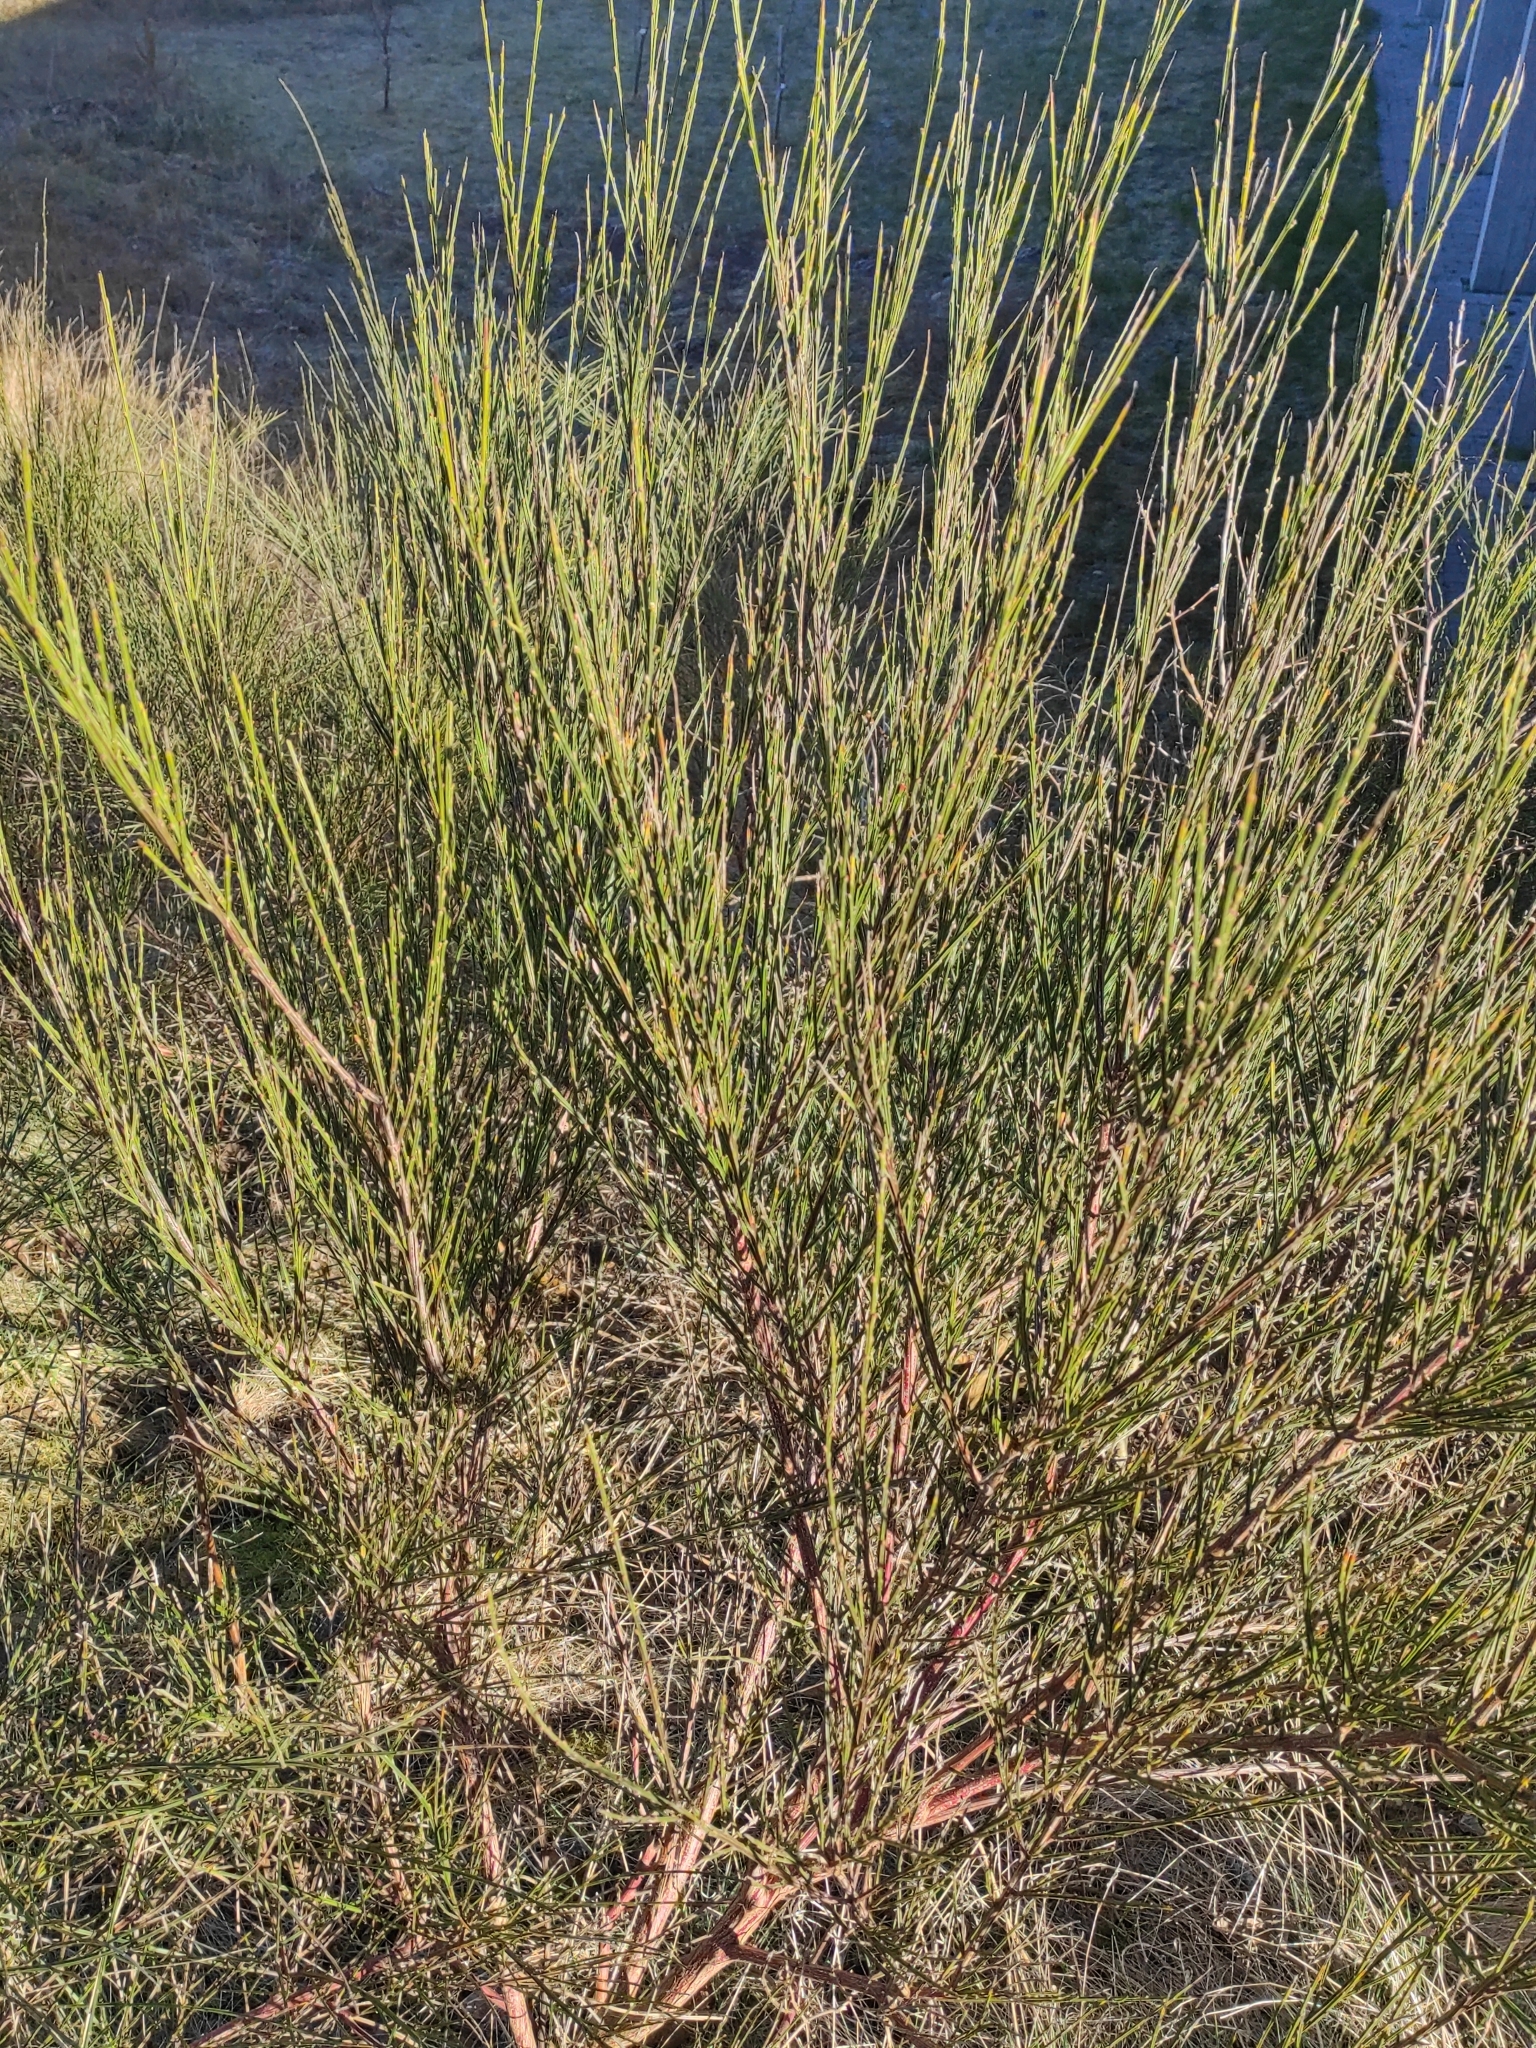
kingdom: Plantae
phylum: Tracheophyta
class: Magnoliopsida
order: Fabales
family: Fabaceae
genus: Cytisus
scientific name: Cytisus scoparius
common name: Scotch broom
